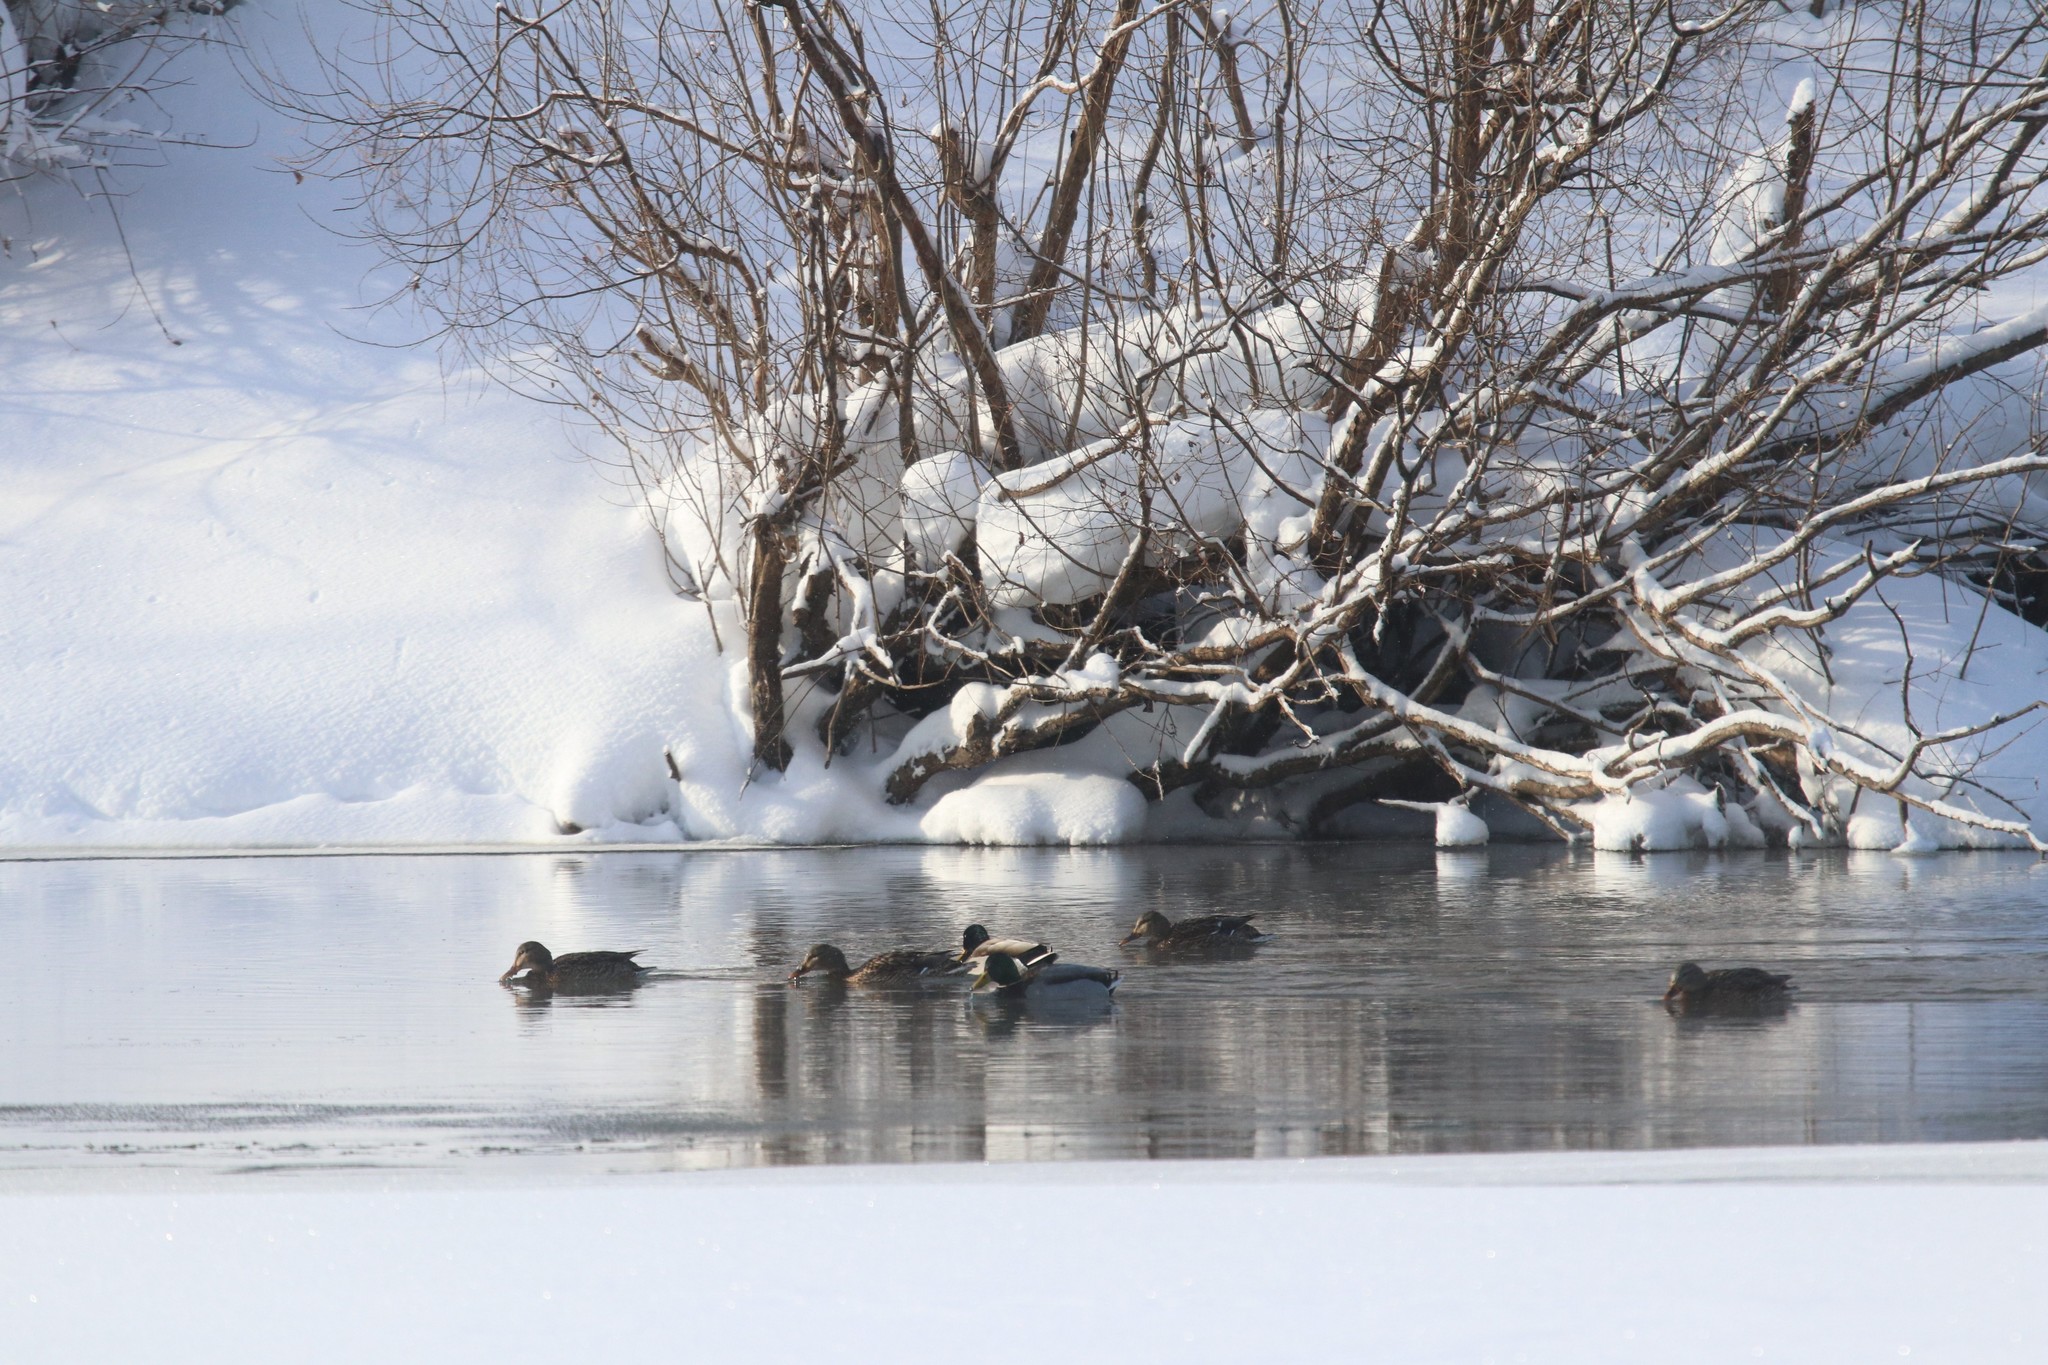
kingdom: Animalia
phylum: Chordata
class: Aves
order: Anseriformes
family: Anatidae
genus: Anas
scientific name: Anas platyrhynchos
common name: Mallard
